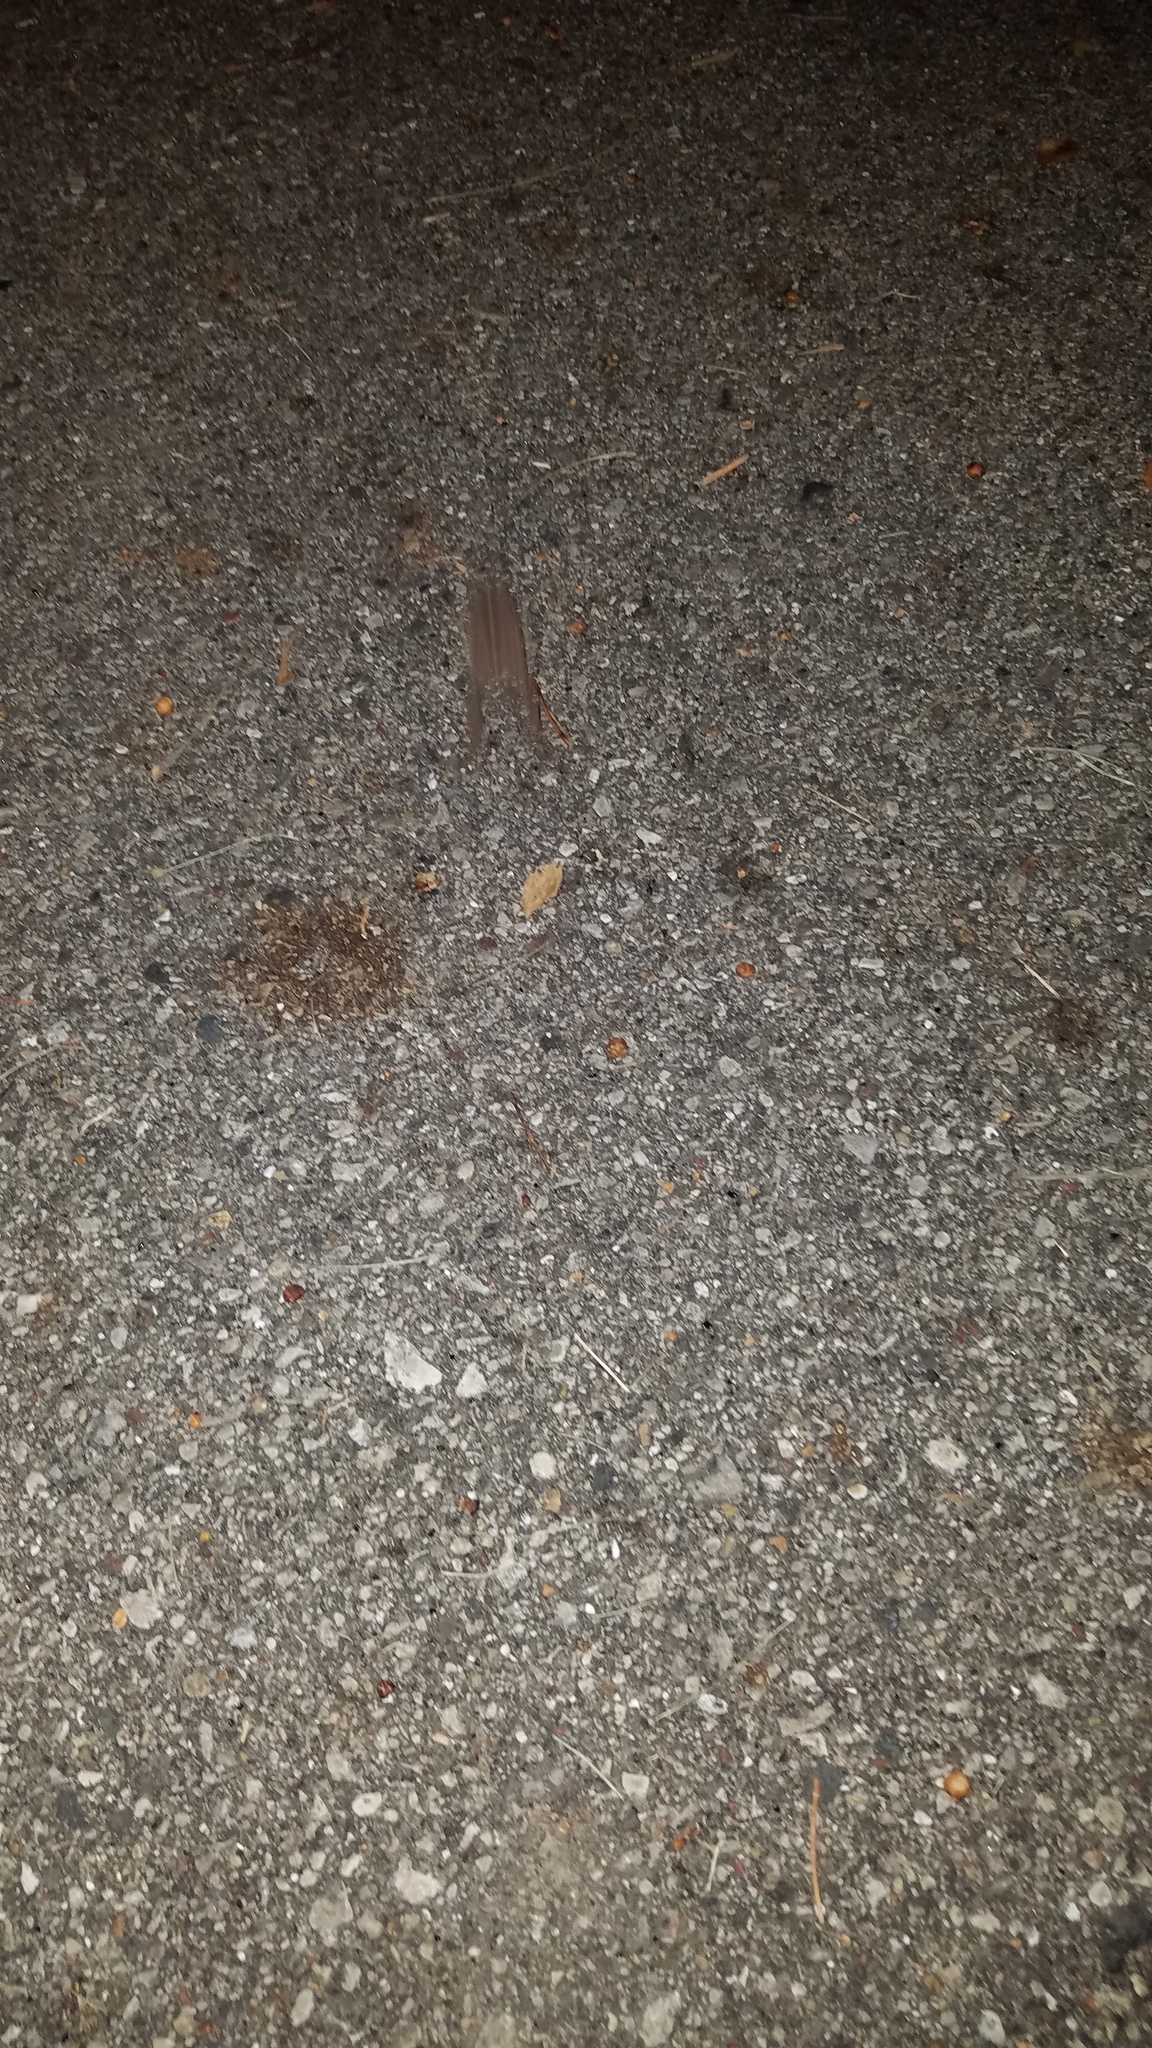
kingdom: Animalia
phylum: Chordata
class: Amphibia
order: Anura
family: Bufonidae
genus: Anaxyrus
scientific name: Anaxyrus americanus
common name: American toad
